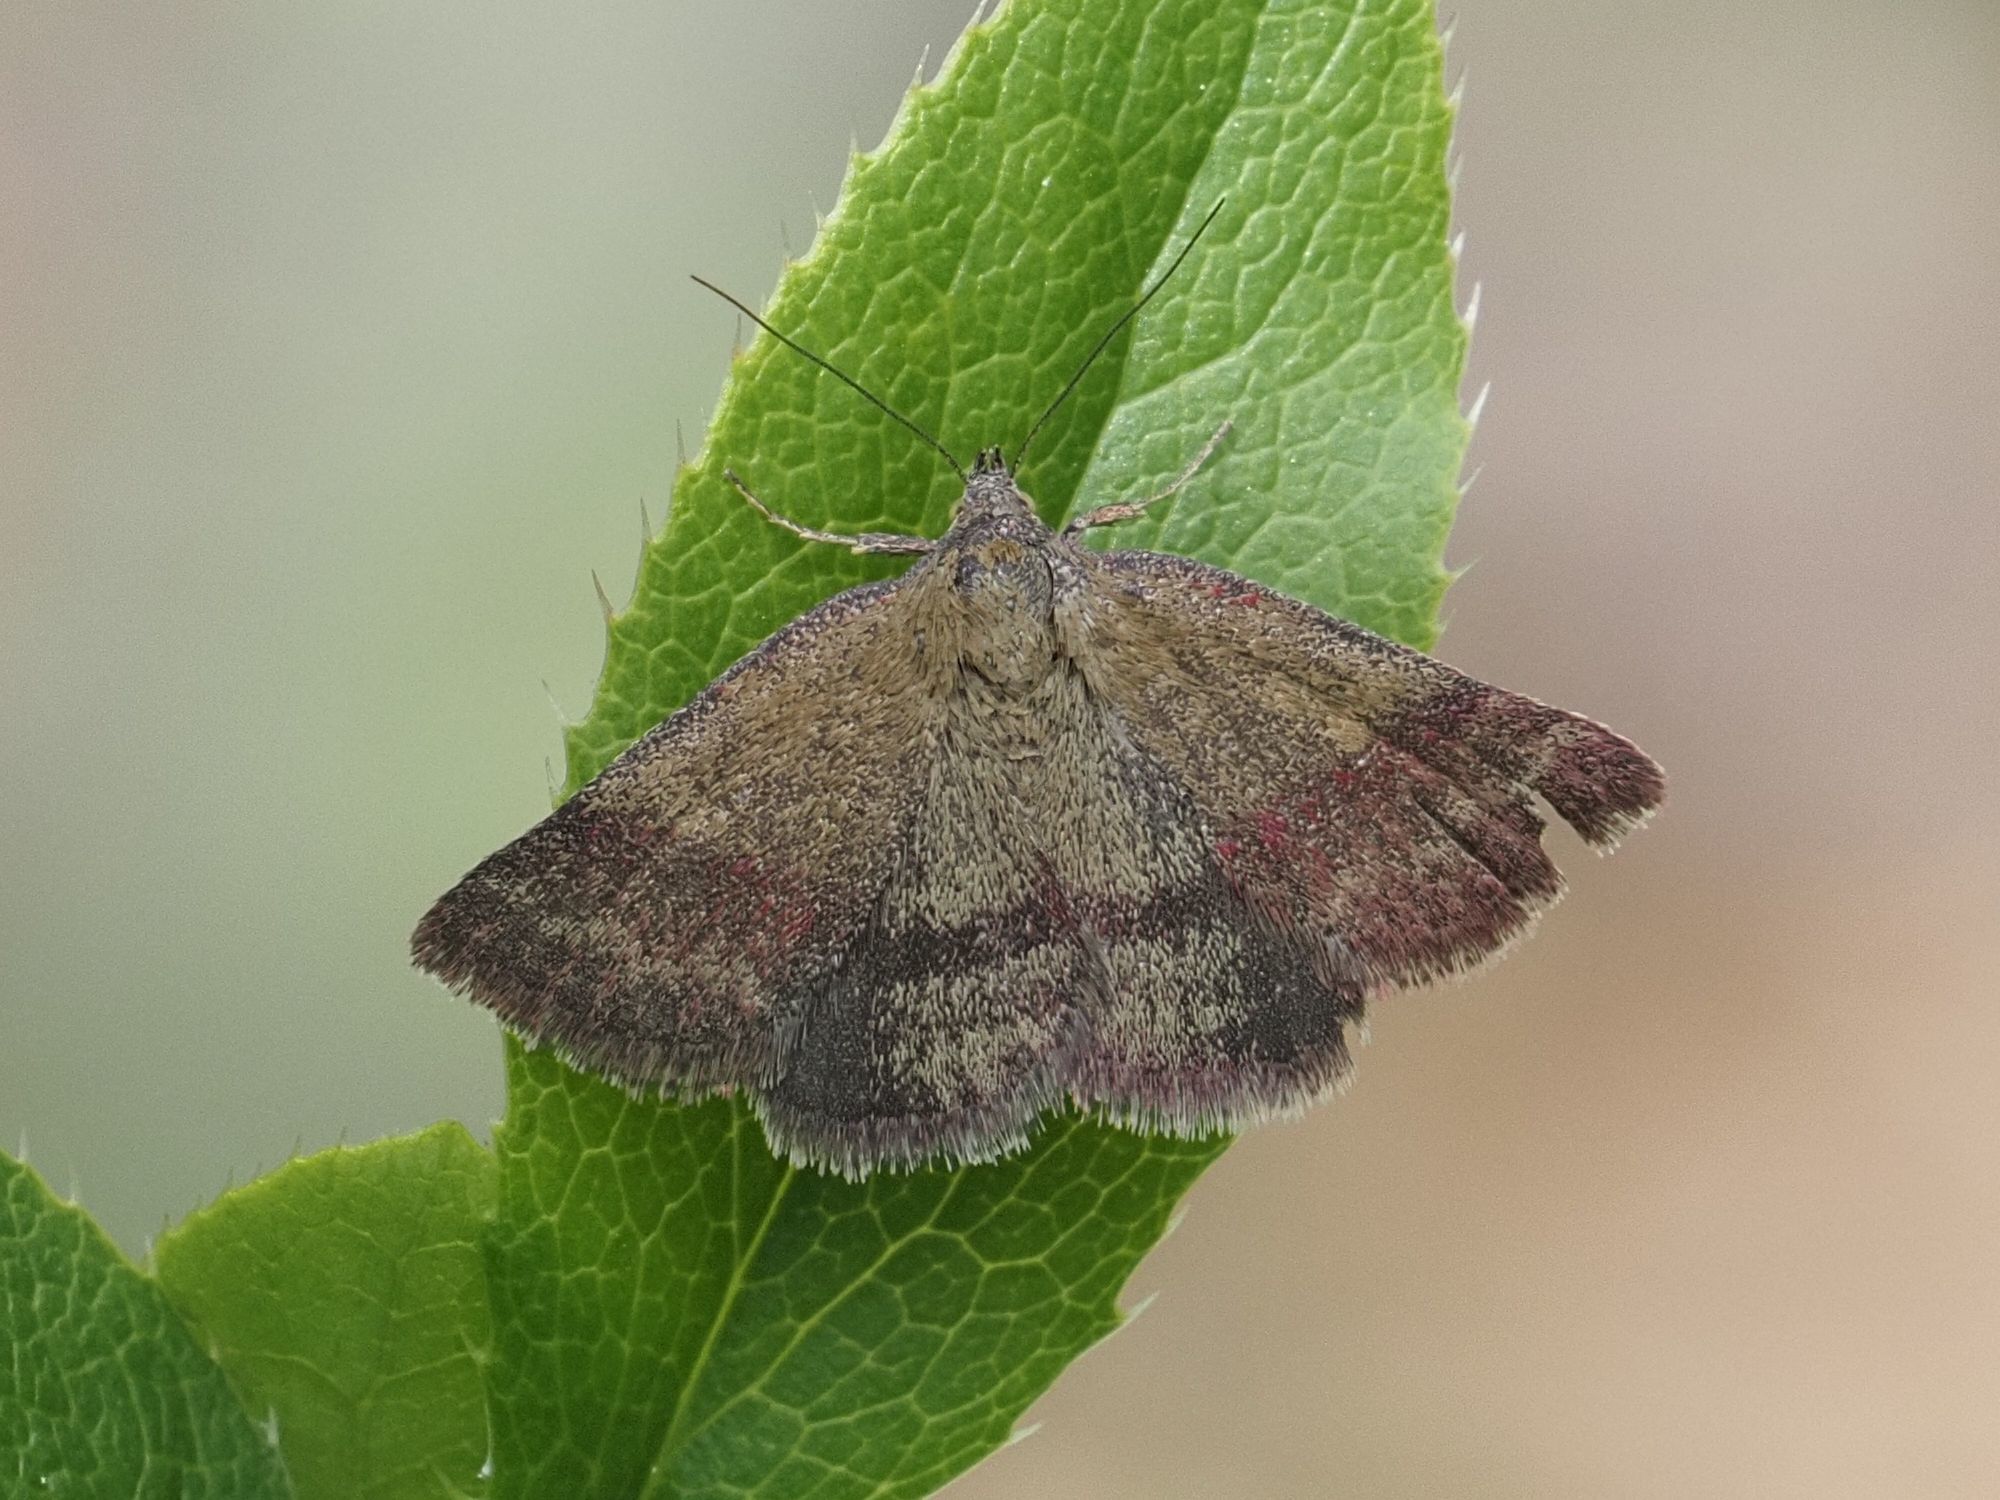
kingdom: Animalia
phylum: Arthropoda
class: Insecta
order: Lepidoptera
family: Erebidae
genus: Phytometra
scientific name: Phytometra viridaria
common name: Small purple-barred
